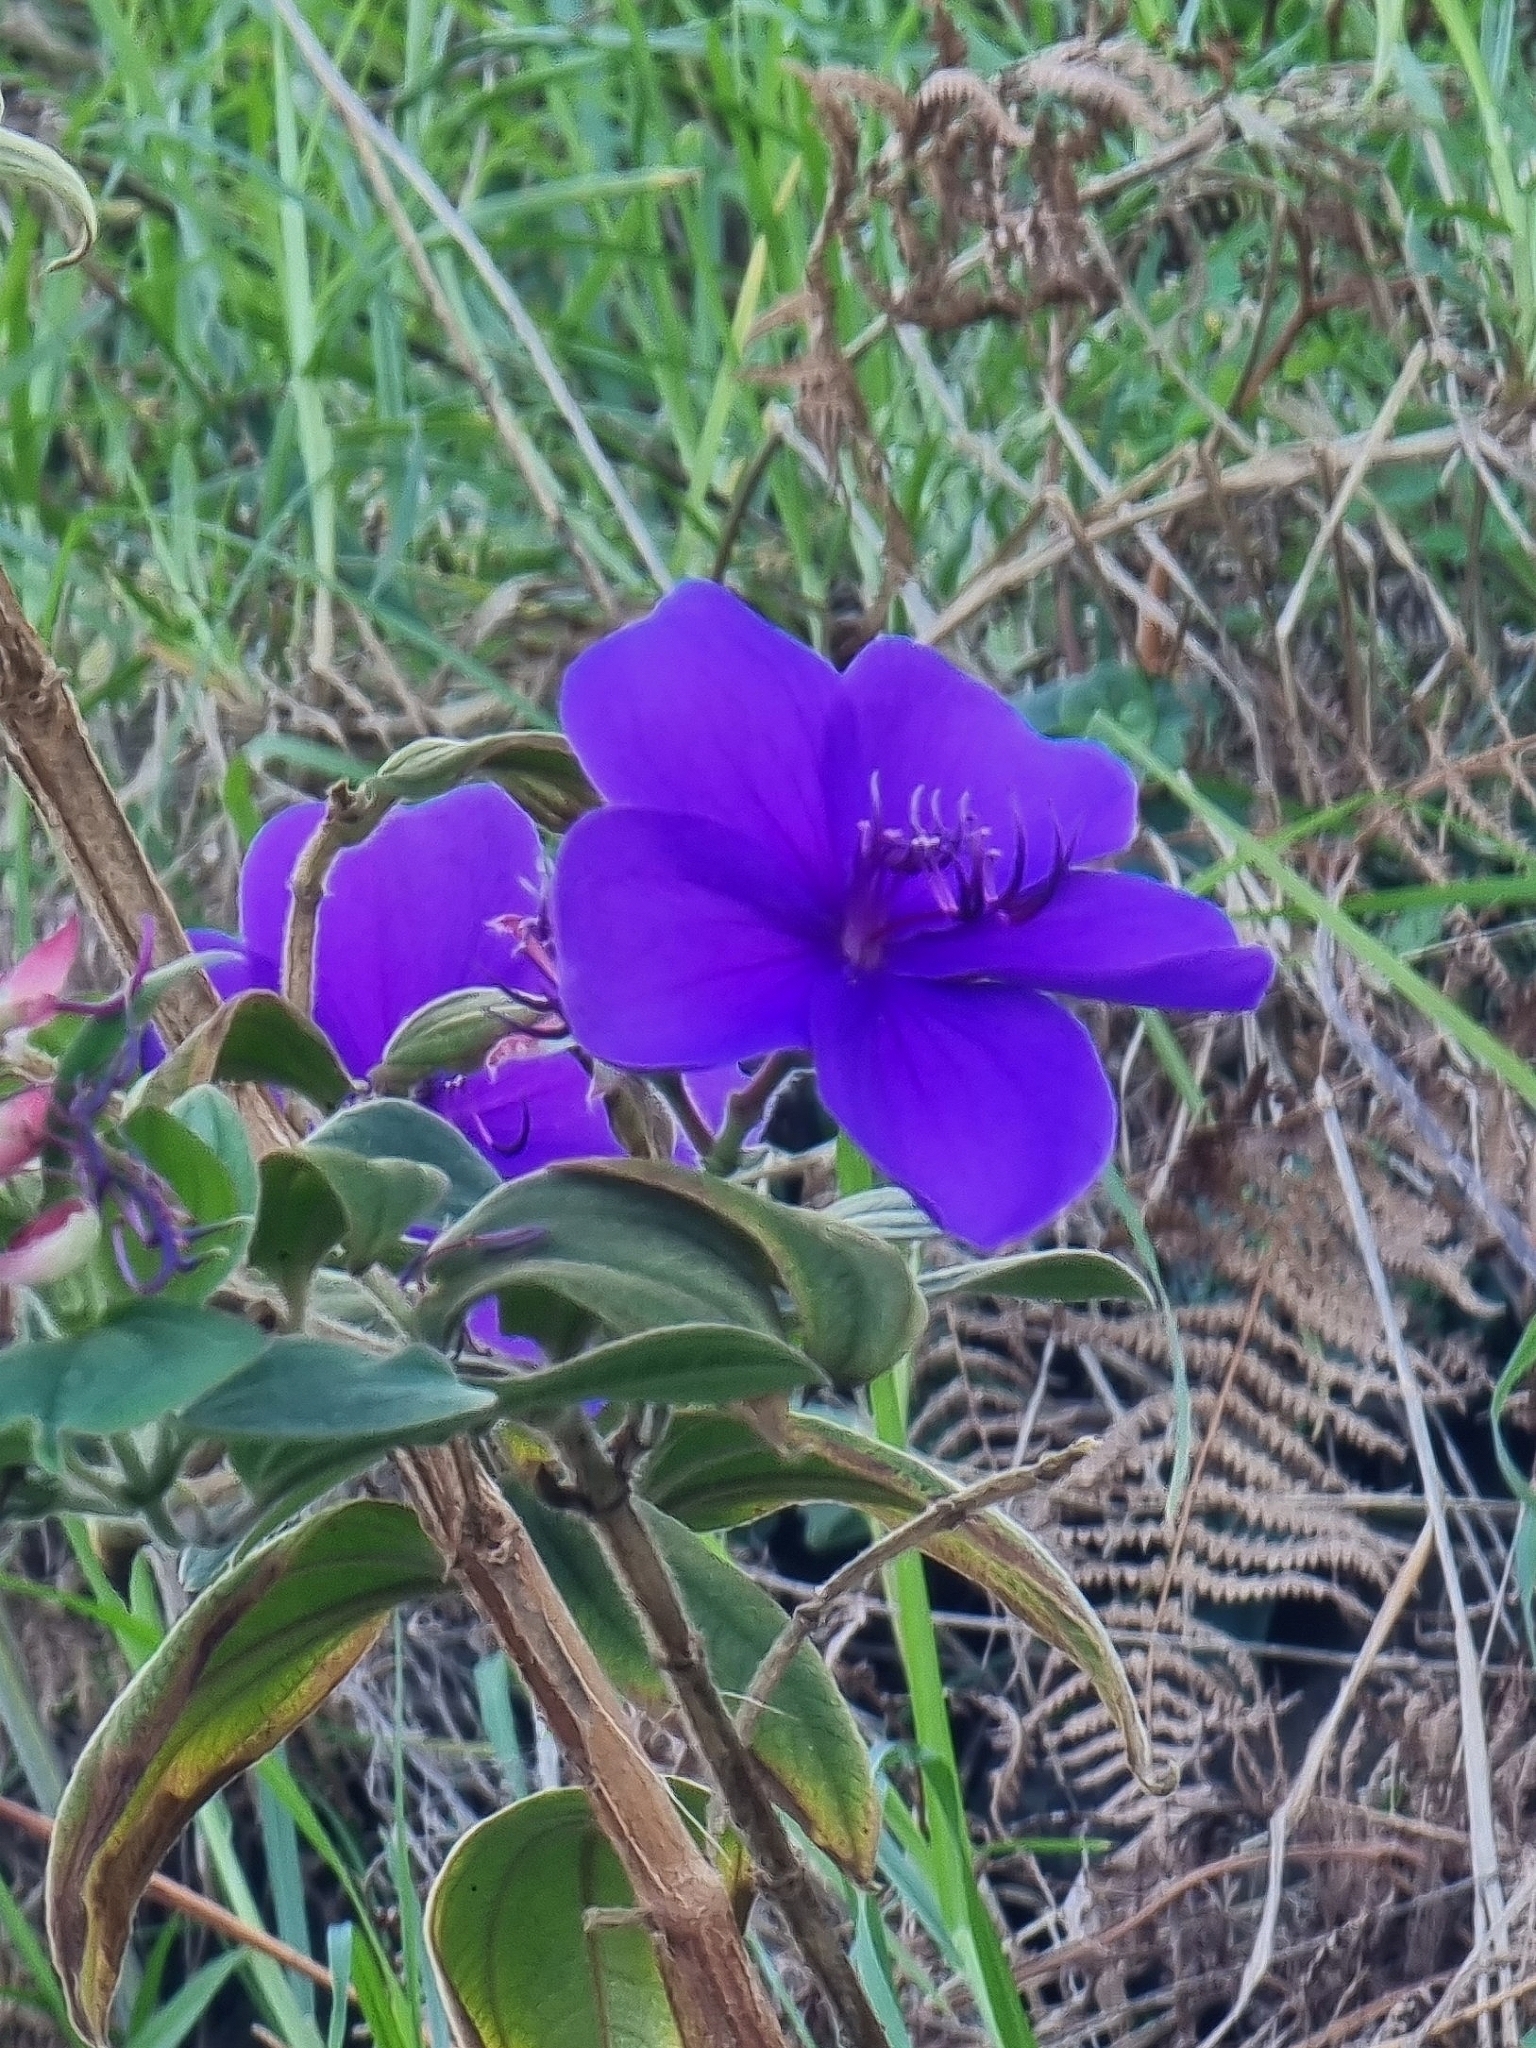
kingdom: Plantae
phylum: Tracheophyta
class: Magnoliopsida
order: Myrtales
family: Melastomataceae
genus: Pleroma
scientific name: Pleroma urvilleanum
